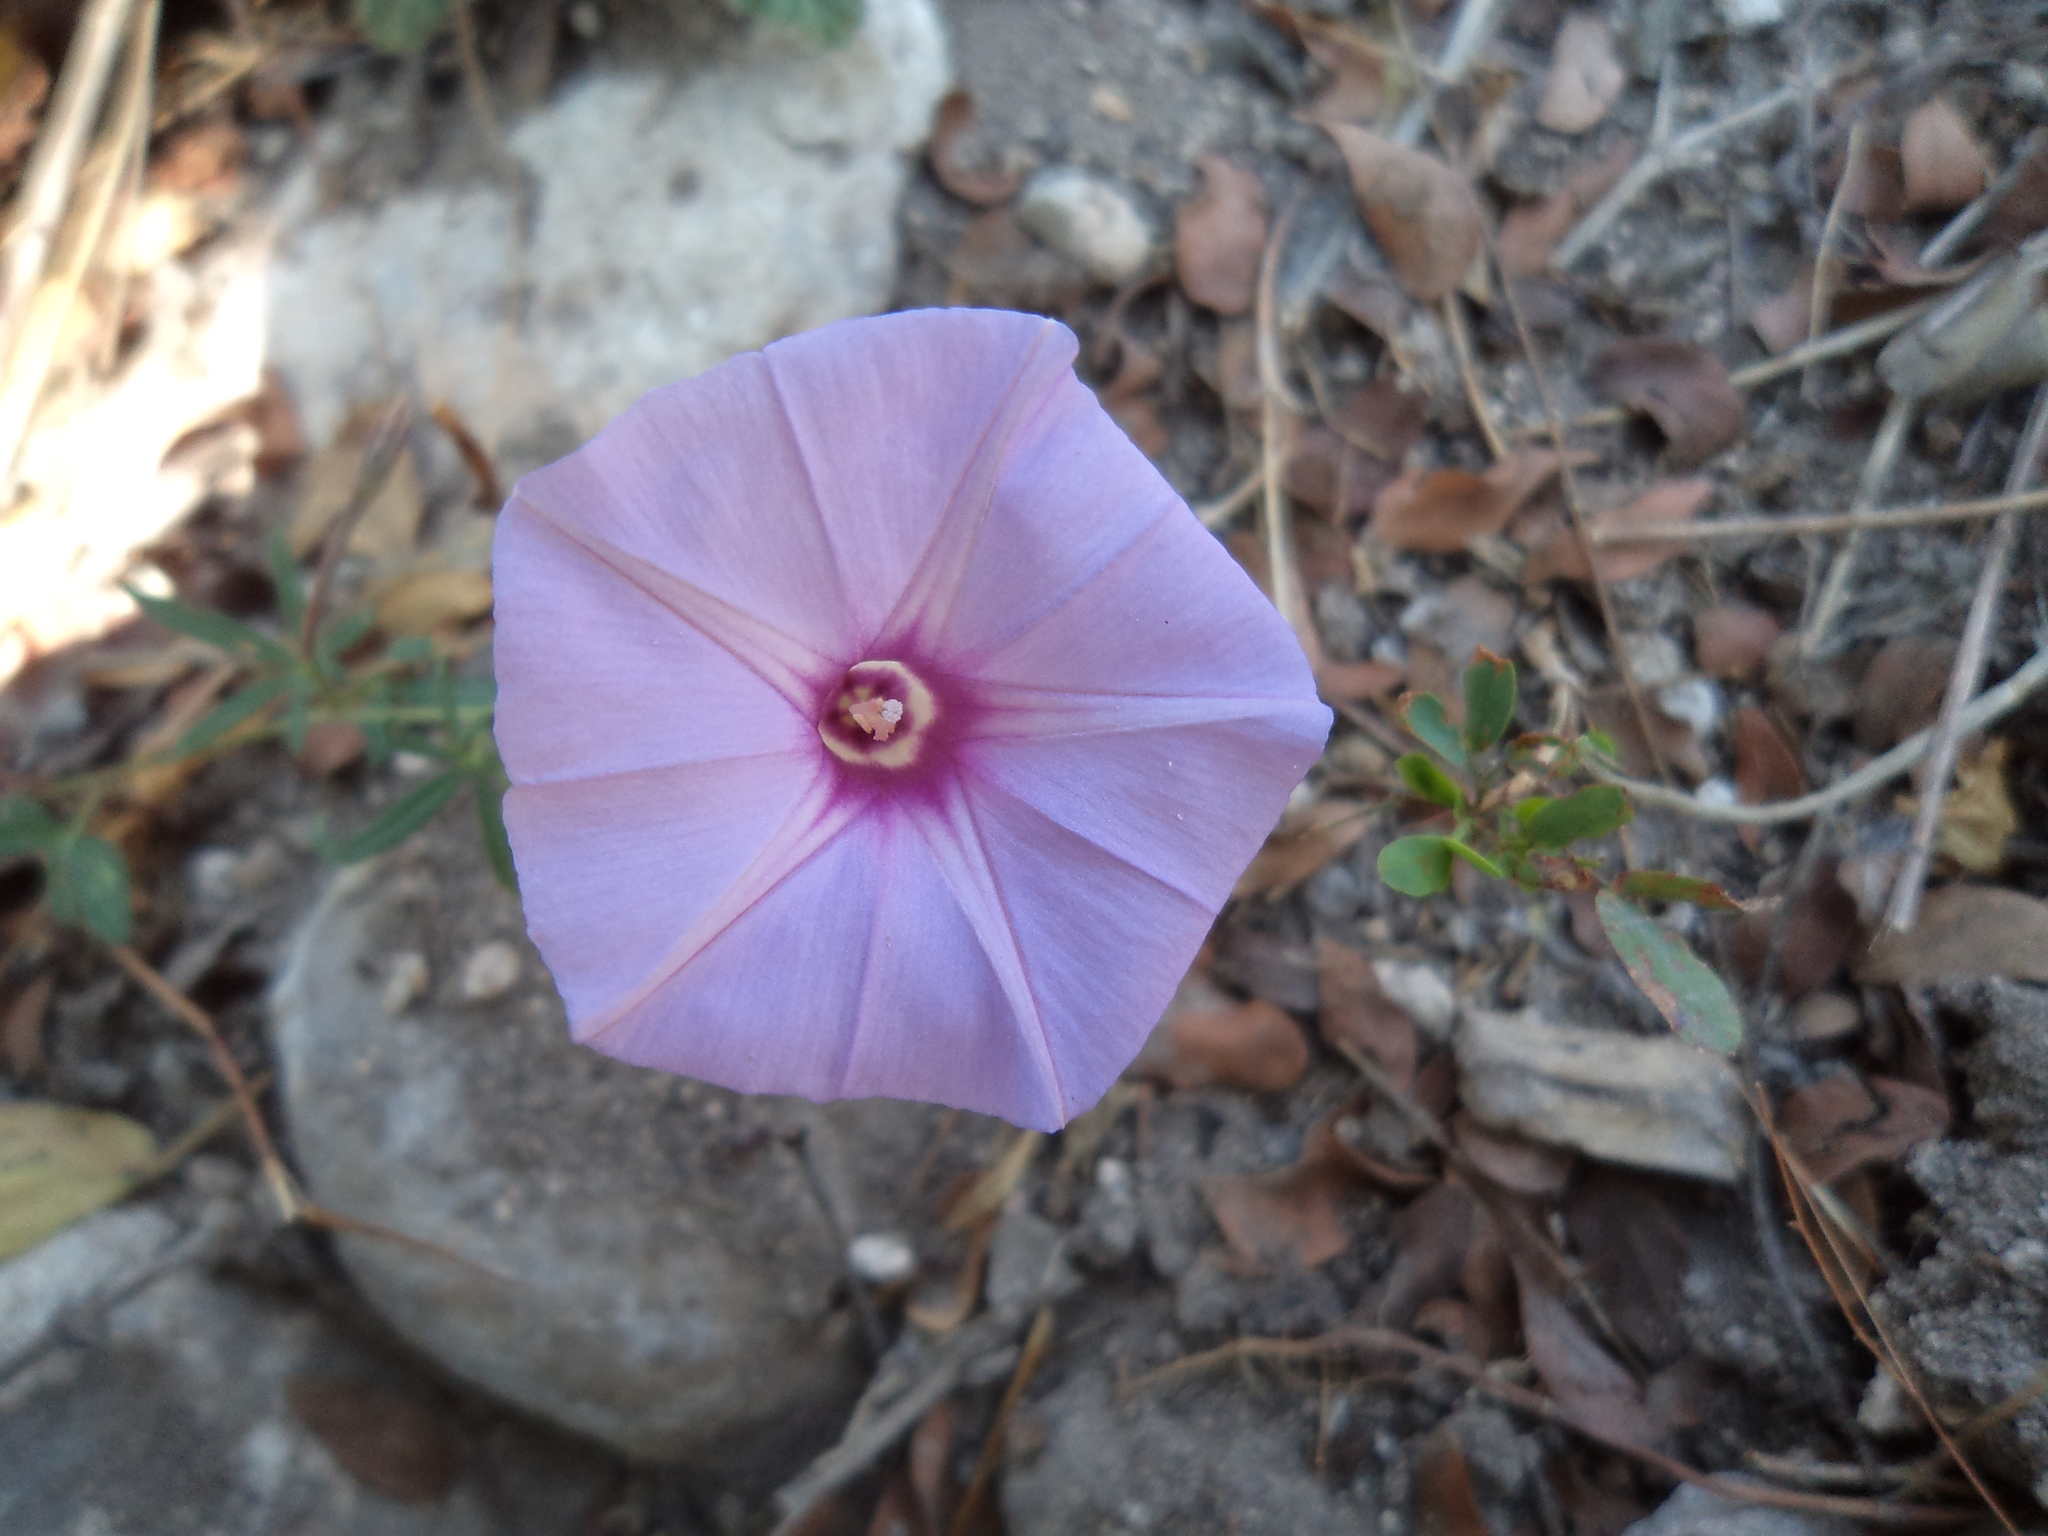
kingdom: Plantae
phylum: Tracheophyta
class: Magnoliopsida
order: Solanales
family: Convolvulaceae
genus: Ipomoea
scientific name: Ipomoea ternifolia
